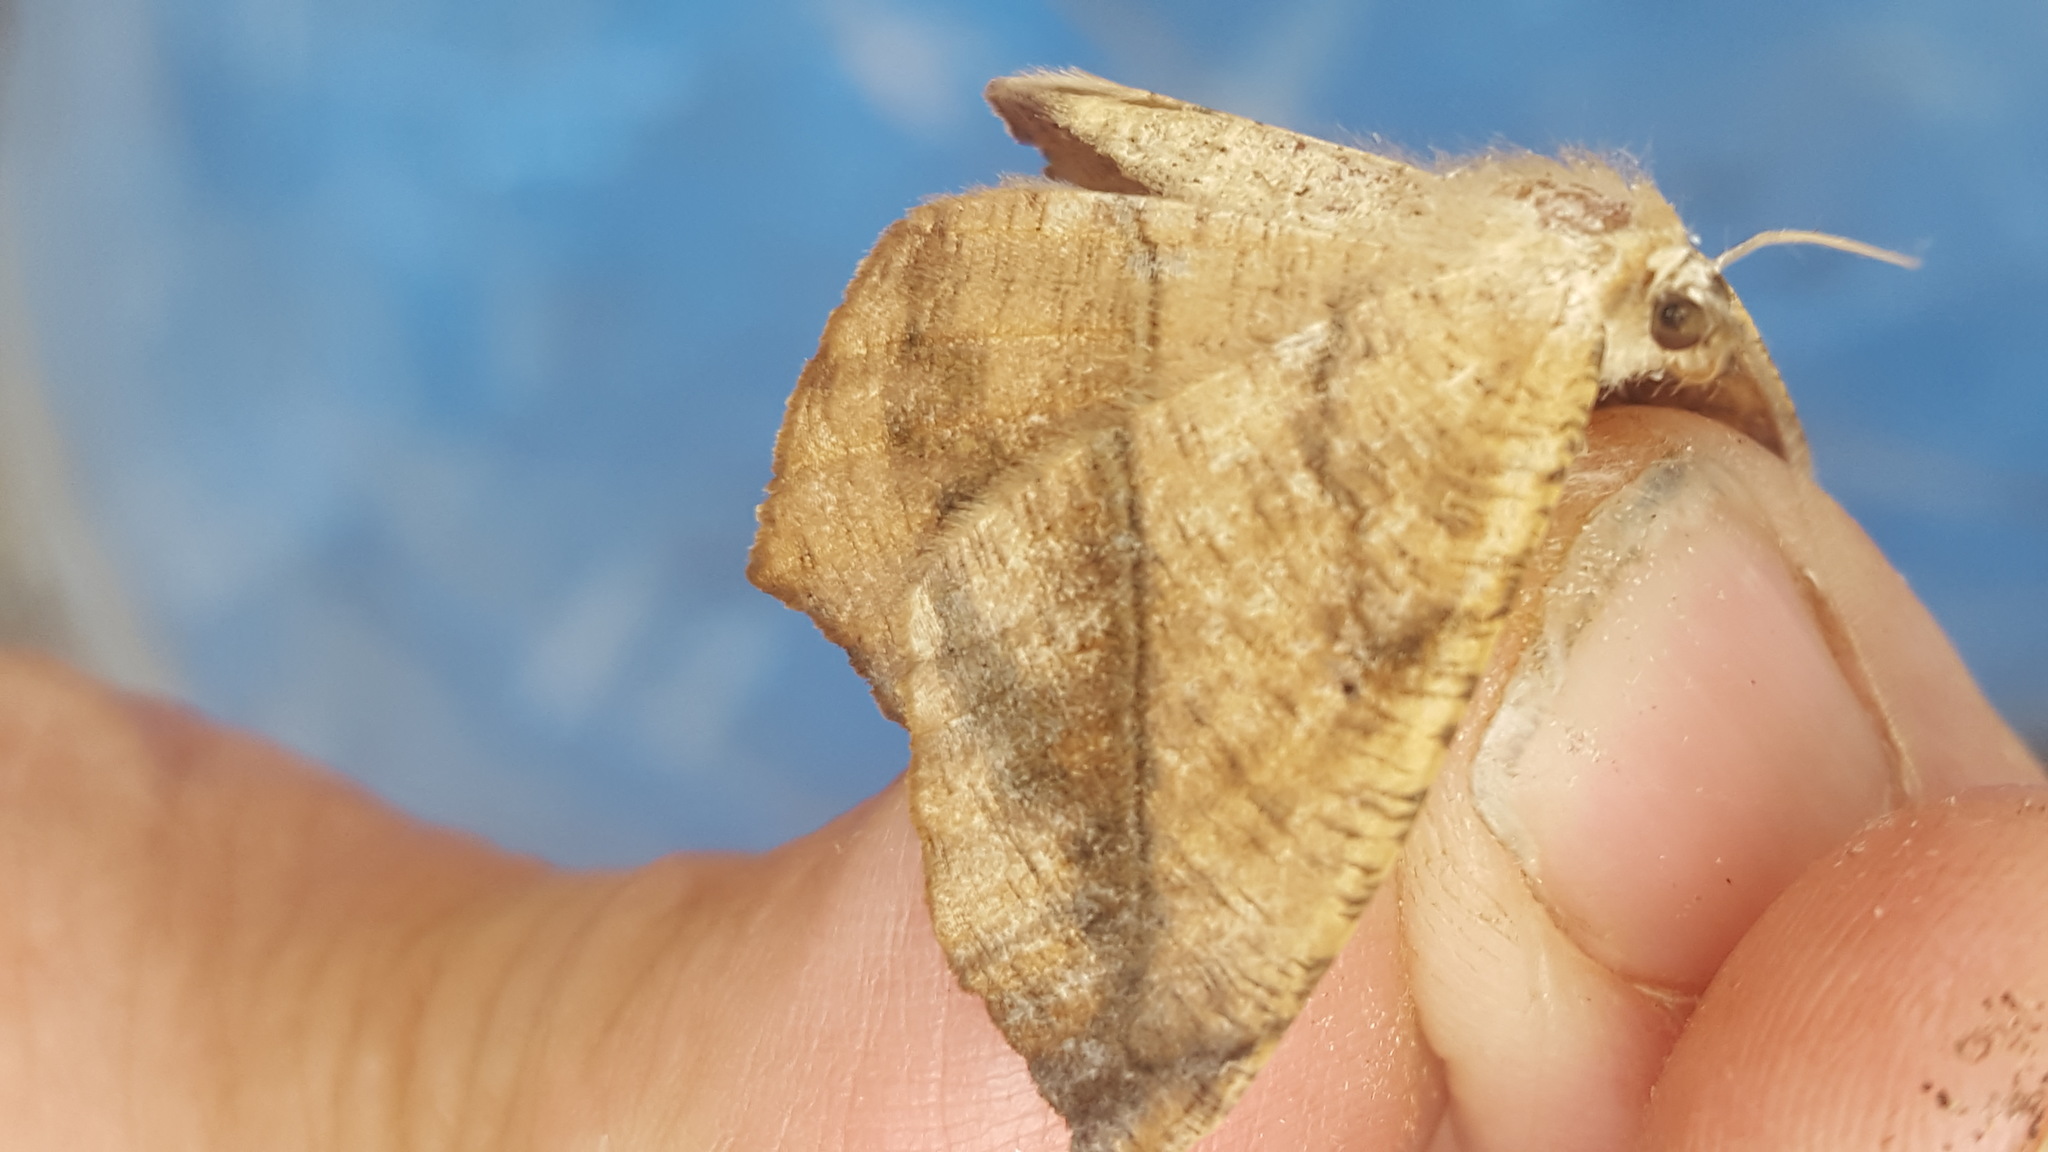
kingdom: Animalia
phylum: Arthropoda
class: Insecta
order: Lepidoptera
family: Geometridae
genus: Prochoerodes
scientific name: Prochoerodes lineola
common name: Large maple spanworm
